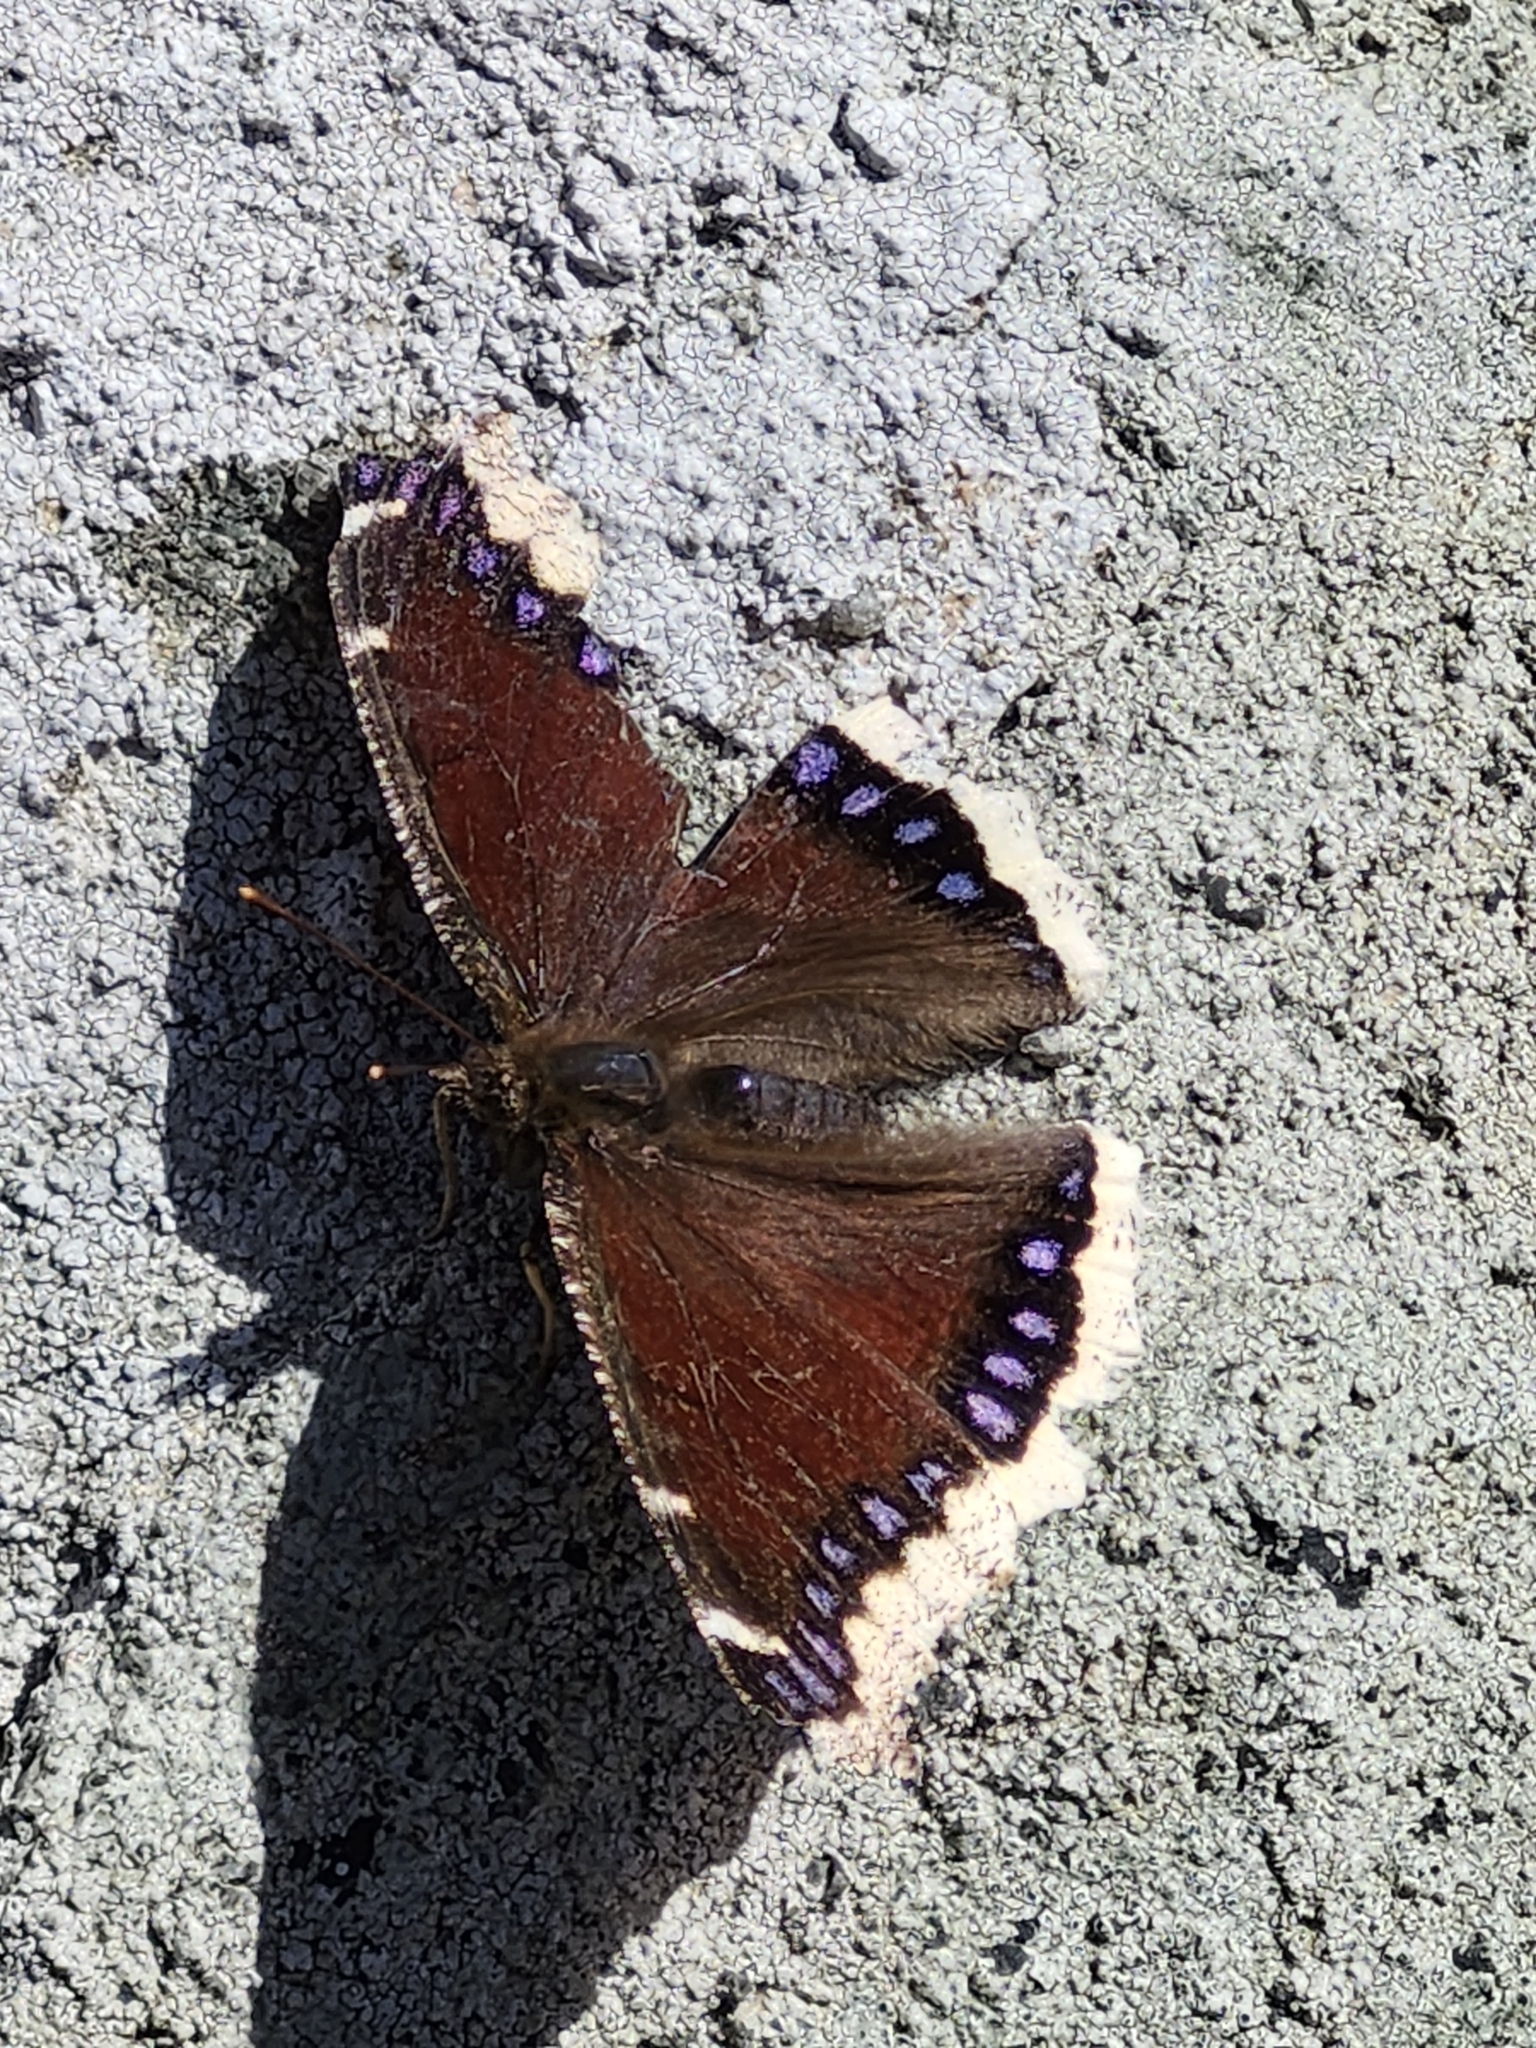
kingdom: Animalia
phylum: Arthropoda
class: Insecta
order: Lepidoptera
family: Nymphalidae
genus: Nymphalis
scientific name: Nymphalis antiopa
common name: Camberwell beauty
